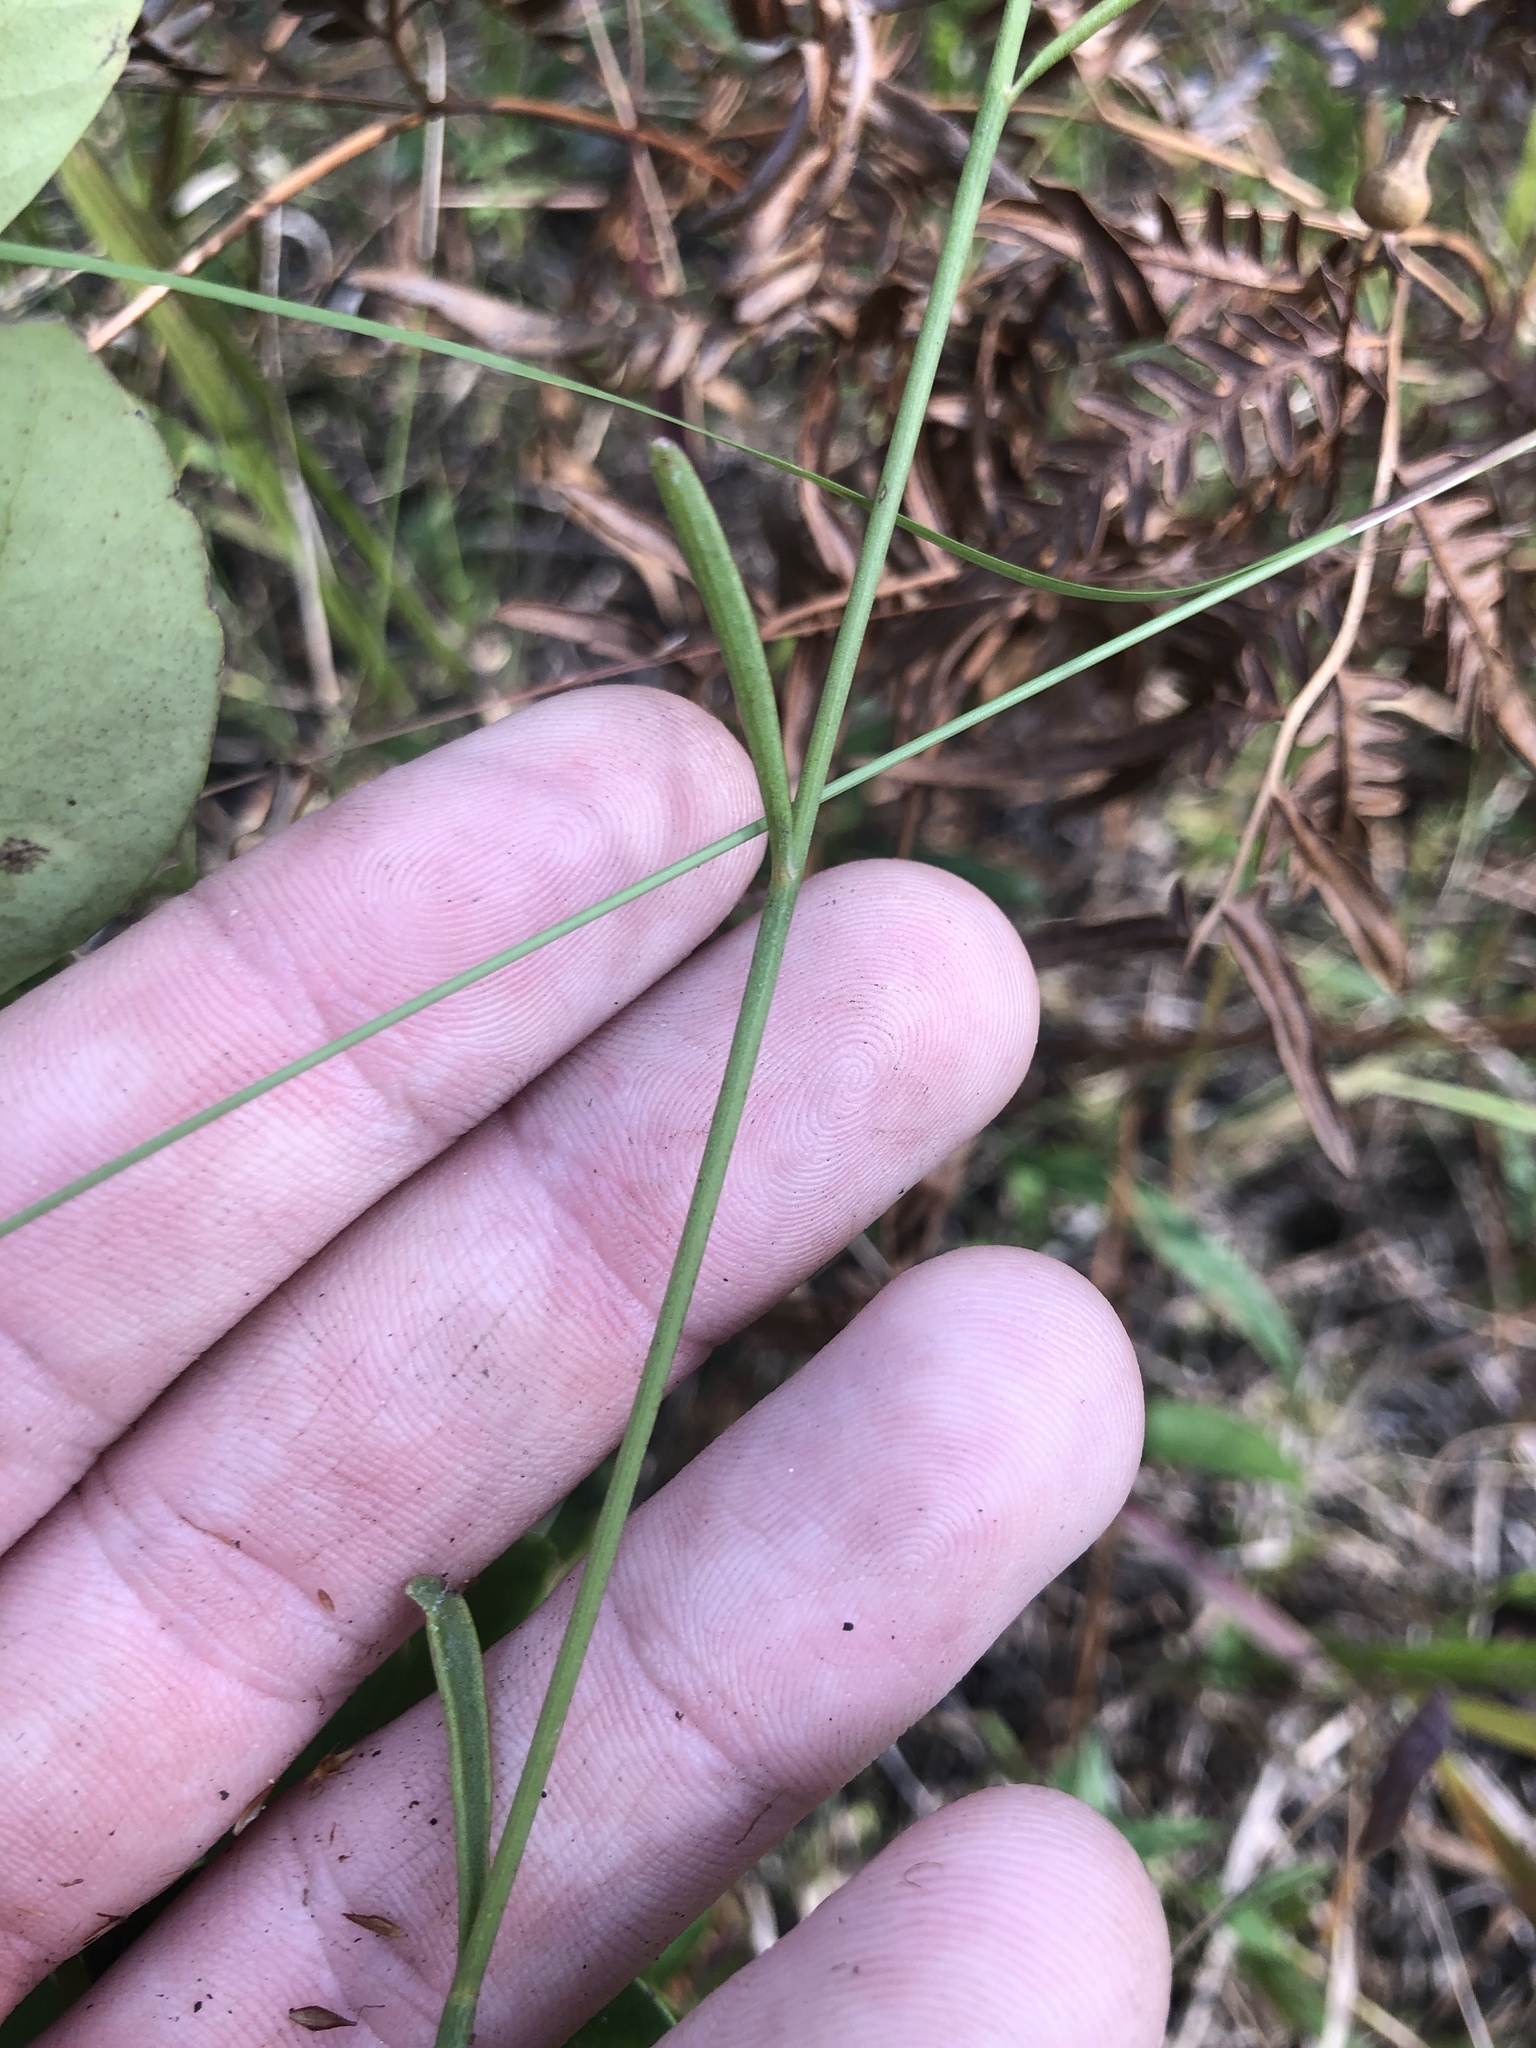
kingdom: Plantae
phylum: Tracheophyta
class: Magnoliopsida
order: Asterales
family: Asteraceae
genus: Coreopsis
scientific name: Coreopsis gladiata
